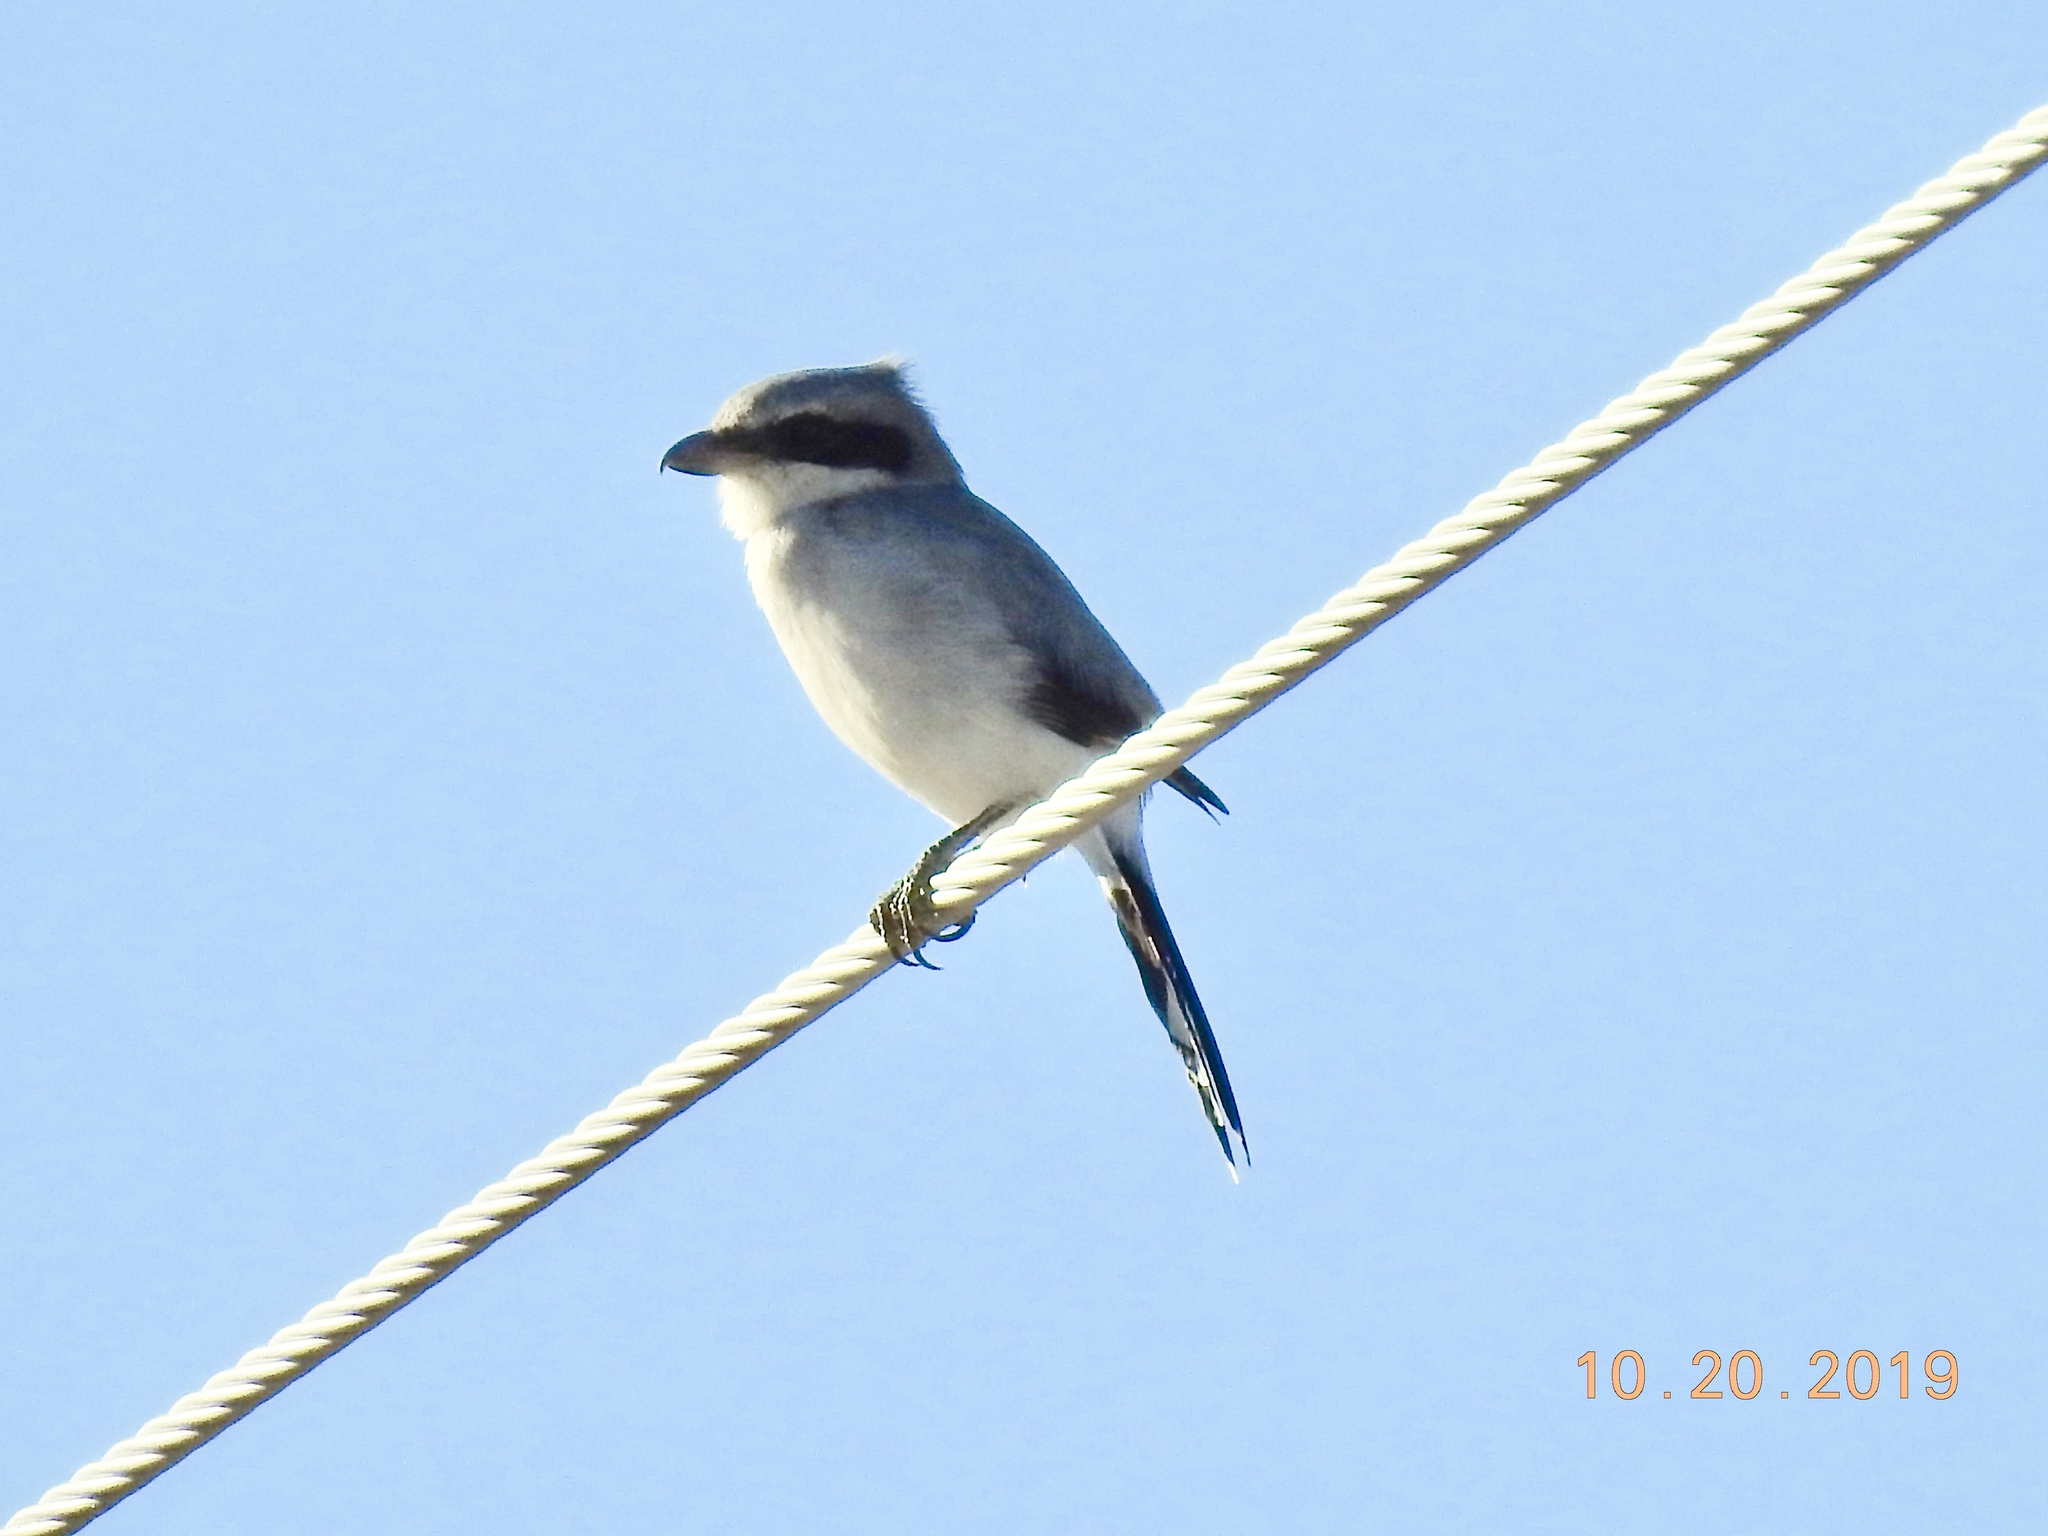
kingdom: Animalia
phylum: Chordata
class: Aves
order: Passeriformes
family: Laniidae
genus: Lanius
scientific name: Lanius ludovicianus
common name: Loggerhead shrike
